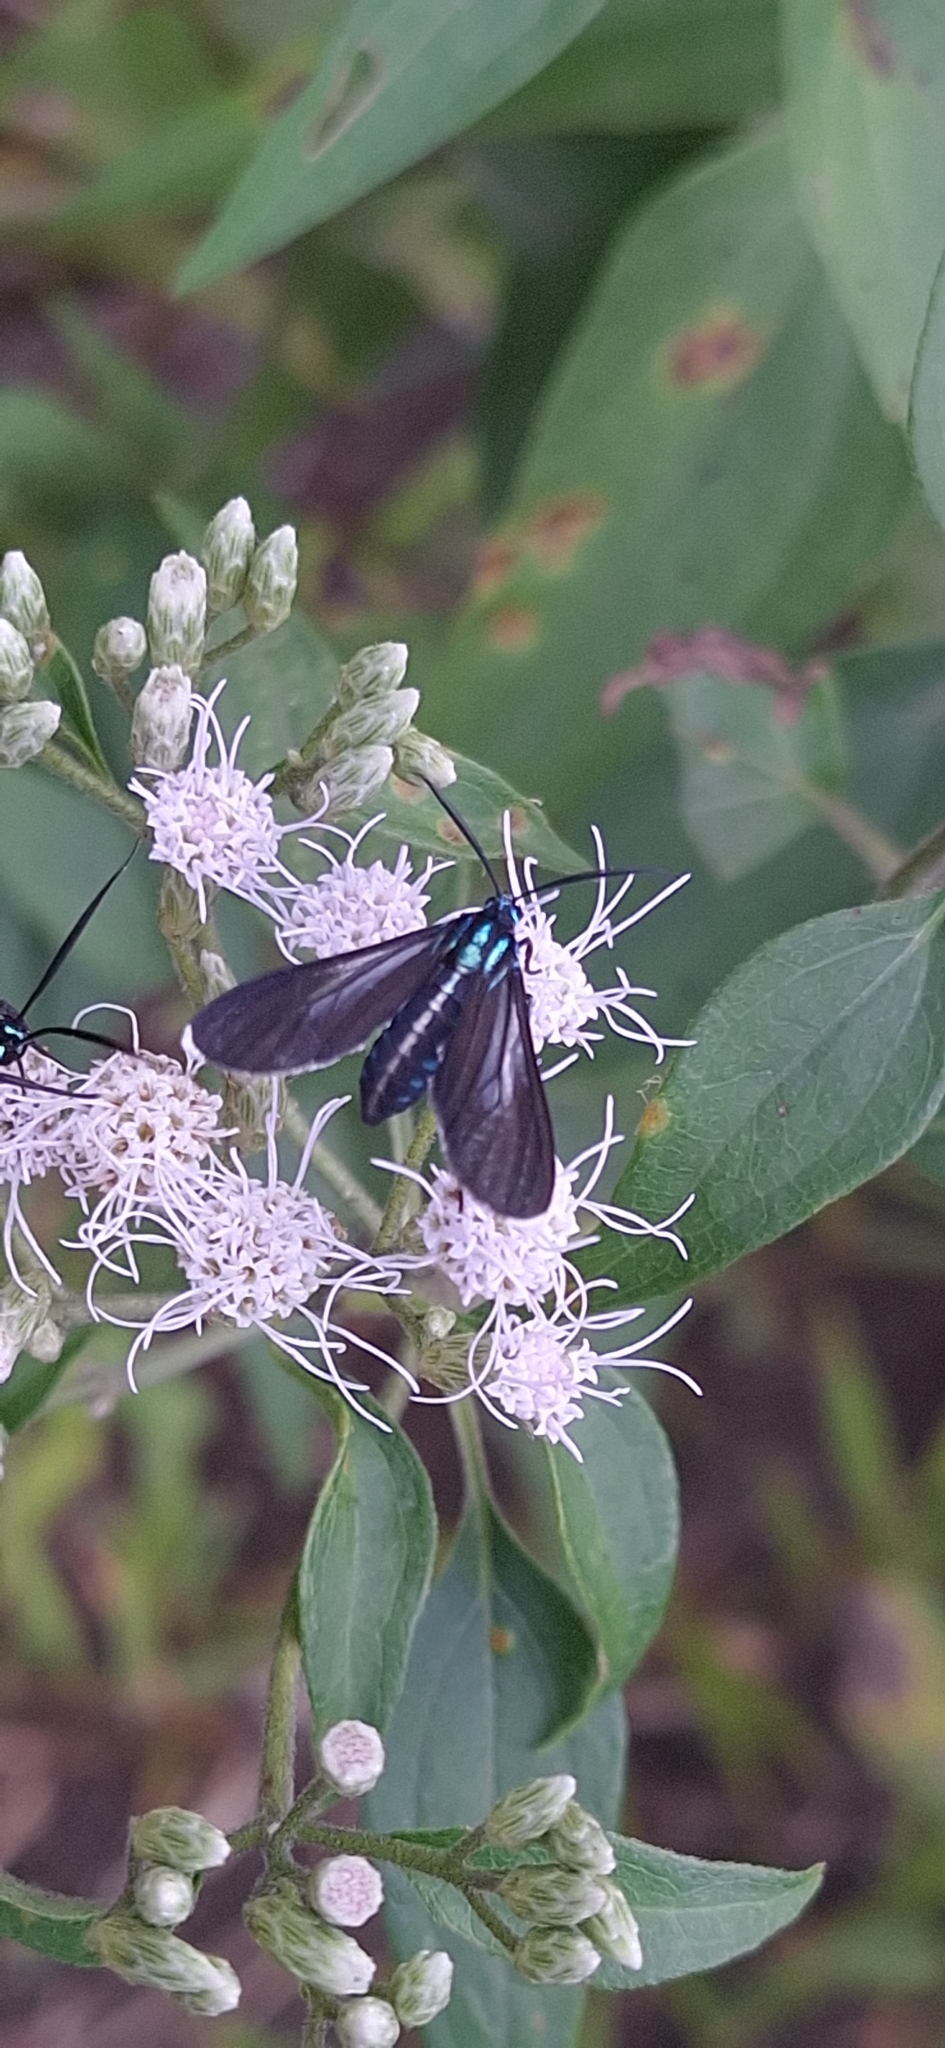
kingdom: Animalia
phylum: Arthropoda
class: Insecta
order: Lepidoptera
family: Erebidae
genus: Uranophora
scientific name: Uranophora leucotela
